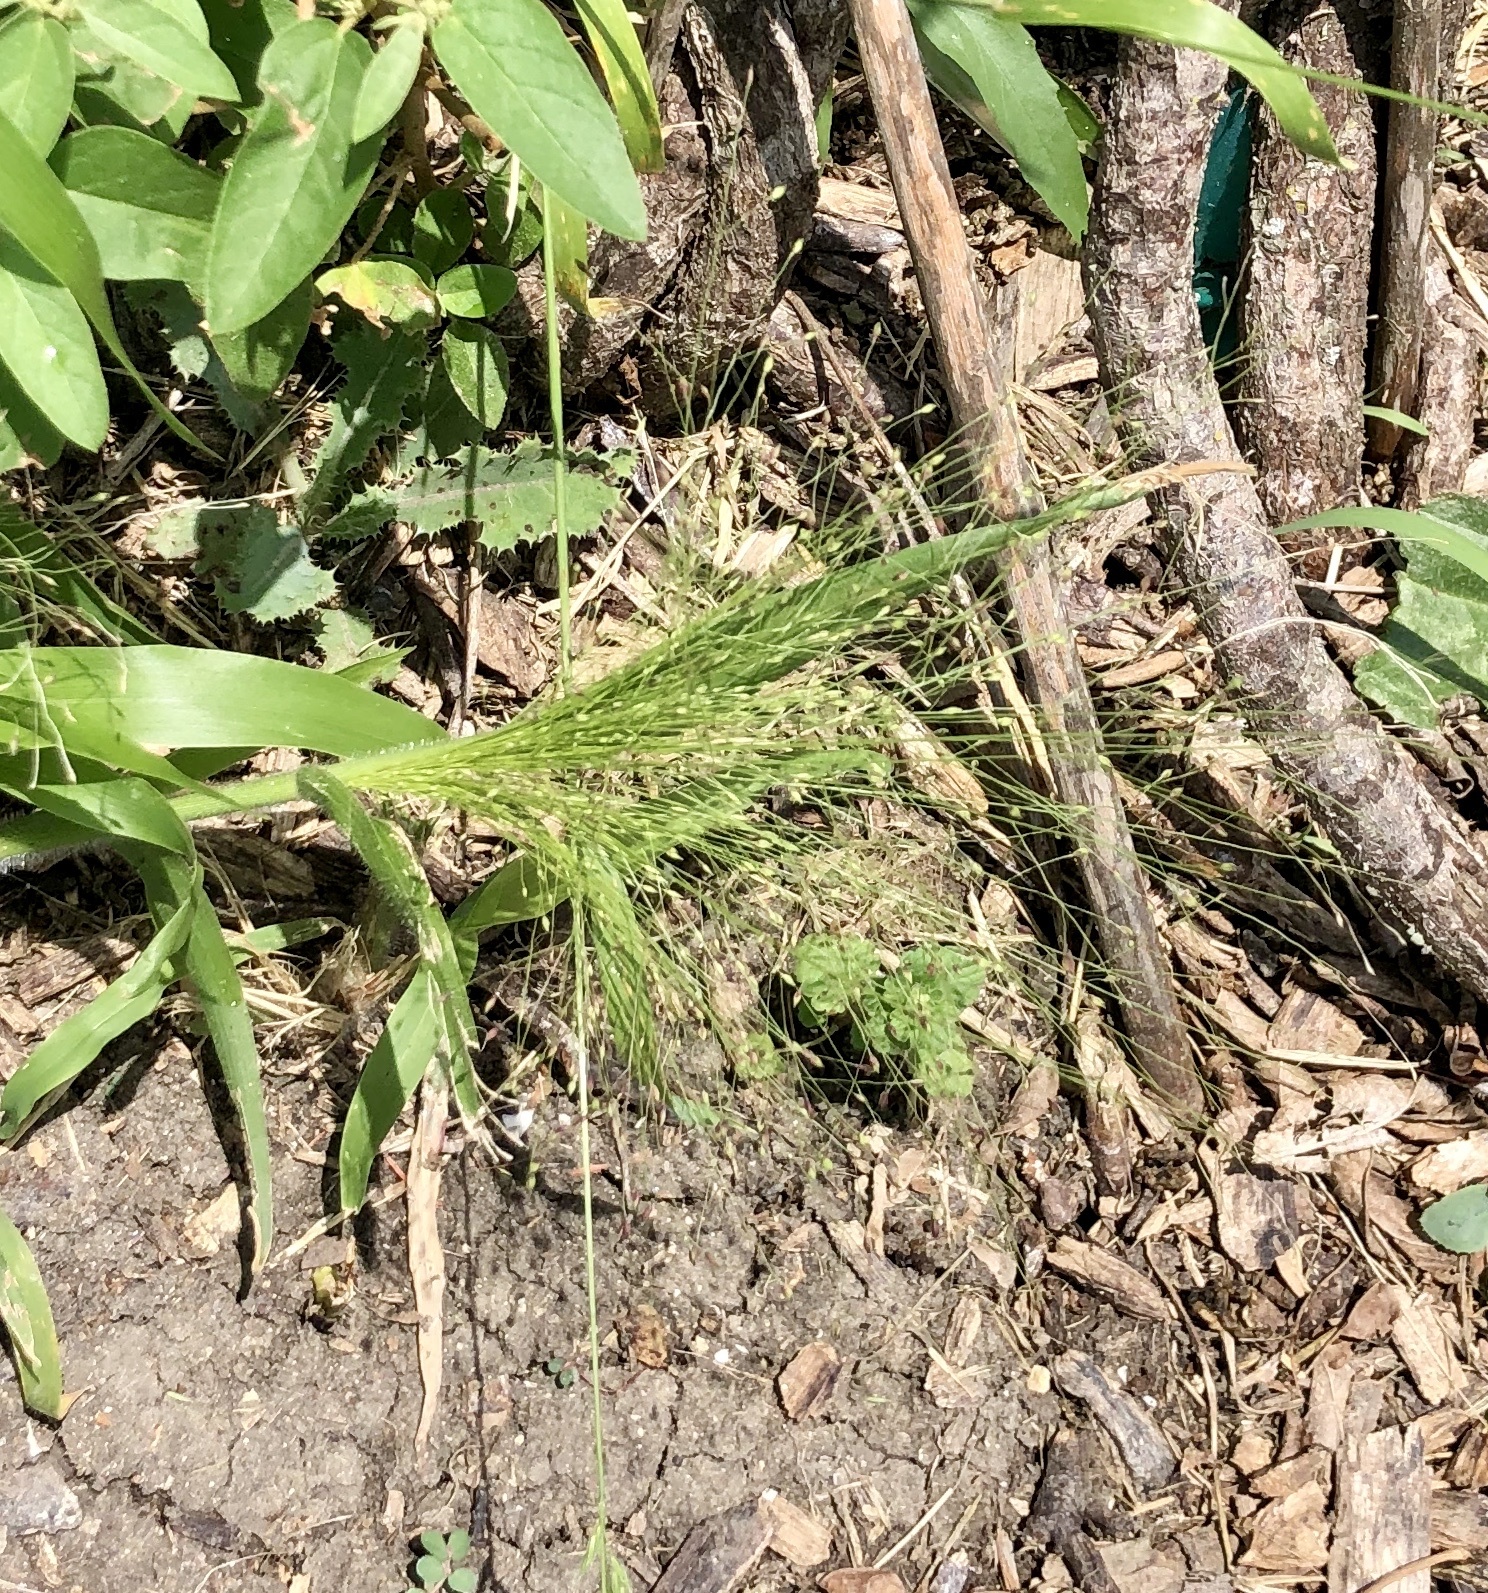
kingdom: Plantae
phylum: Tracheophyta
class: Liliopsida
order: Poales
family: Poaceae
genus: Panicum
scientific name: Panicum capillare
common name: Witch-grass
